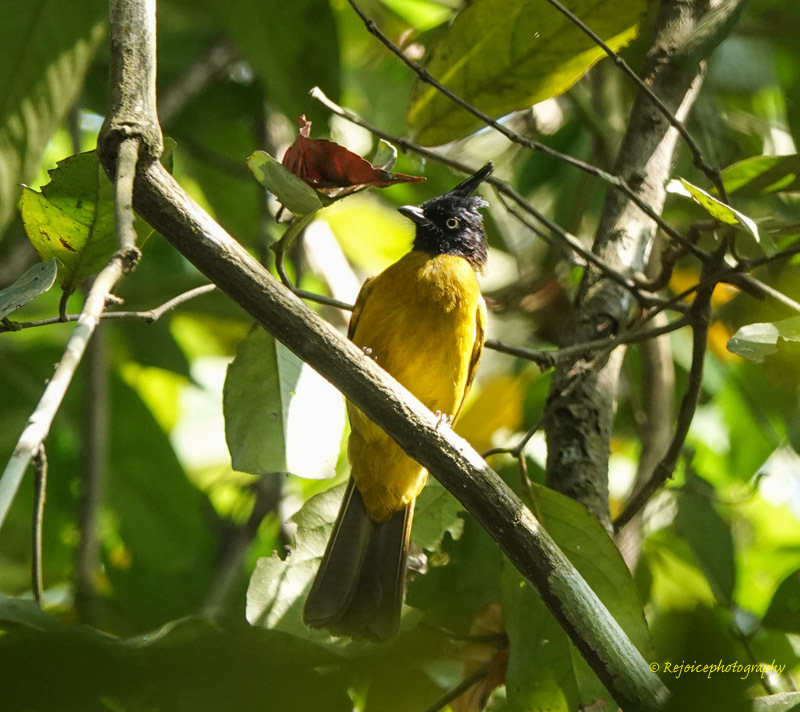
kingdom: Animalia
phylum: Chordata
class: Aves
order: Passeriformes
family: Pycnonotidae
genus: Pycnonotus
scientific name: Pycnonotus flaviventris
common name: Black-crested bulbul
